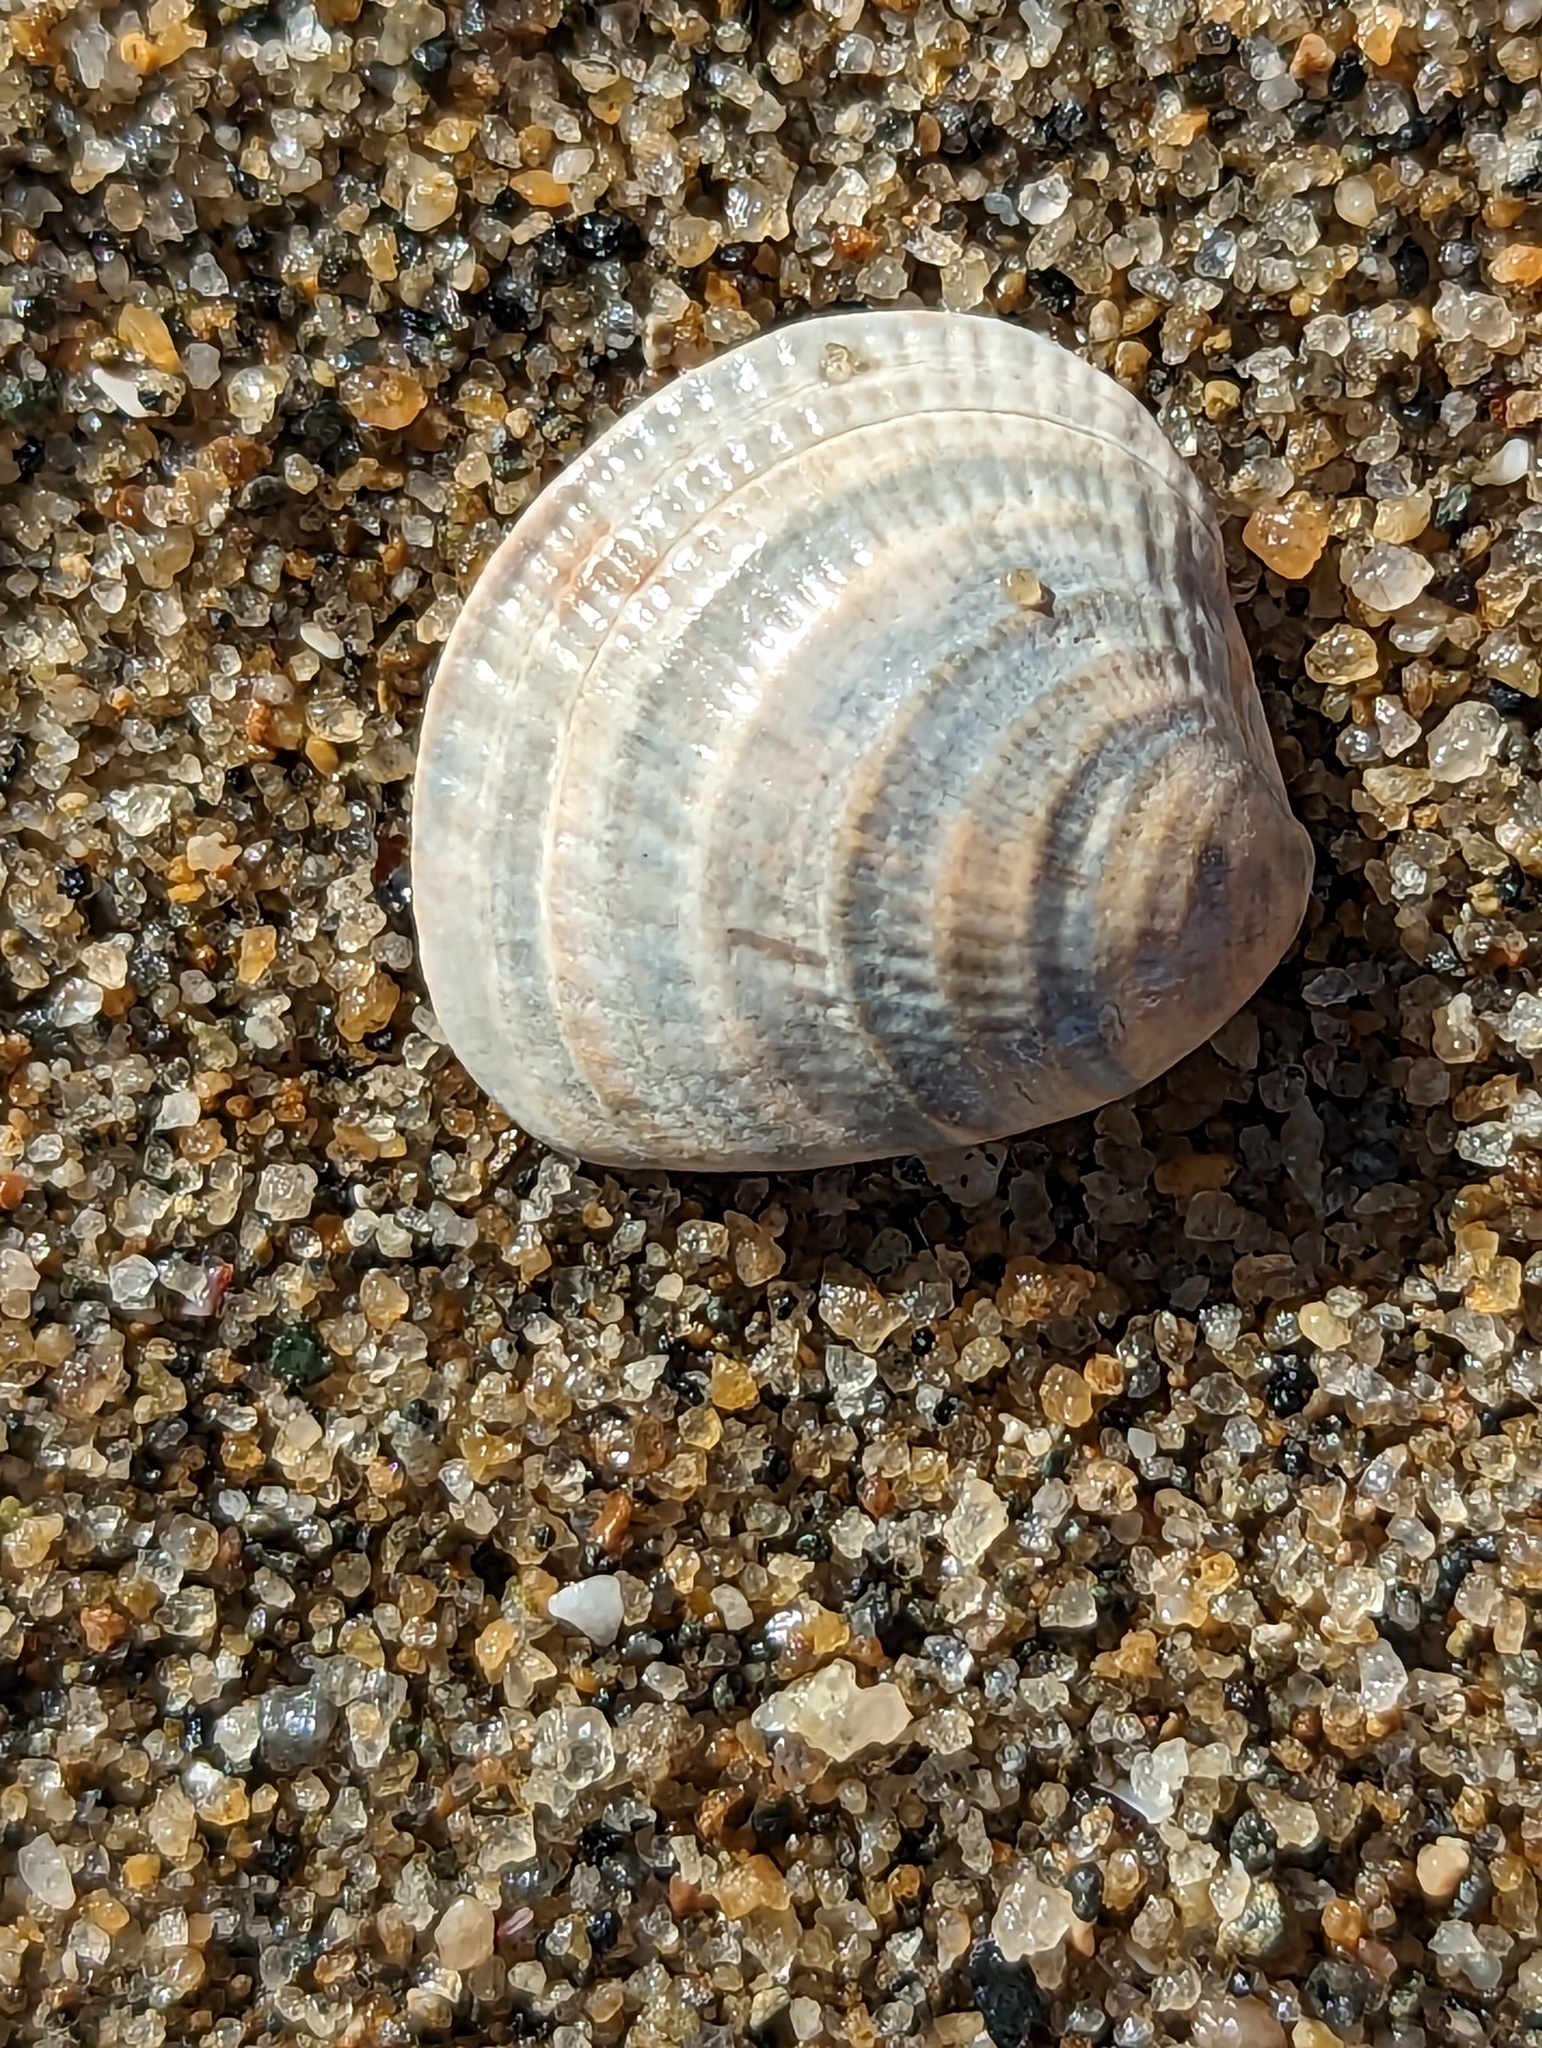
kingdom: Animalia
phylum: Mollusca
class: Bivalvia
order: Venerida
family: Veneridae
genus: Chione
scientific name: Chione cancellata
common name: Cross-barred venus
